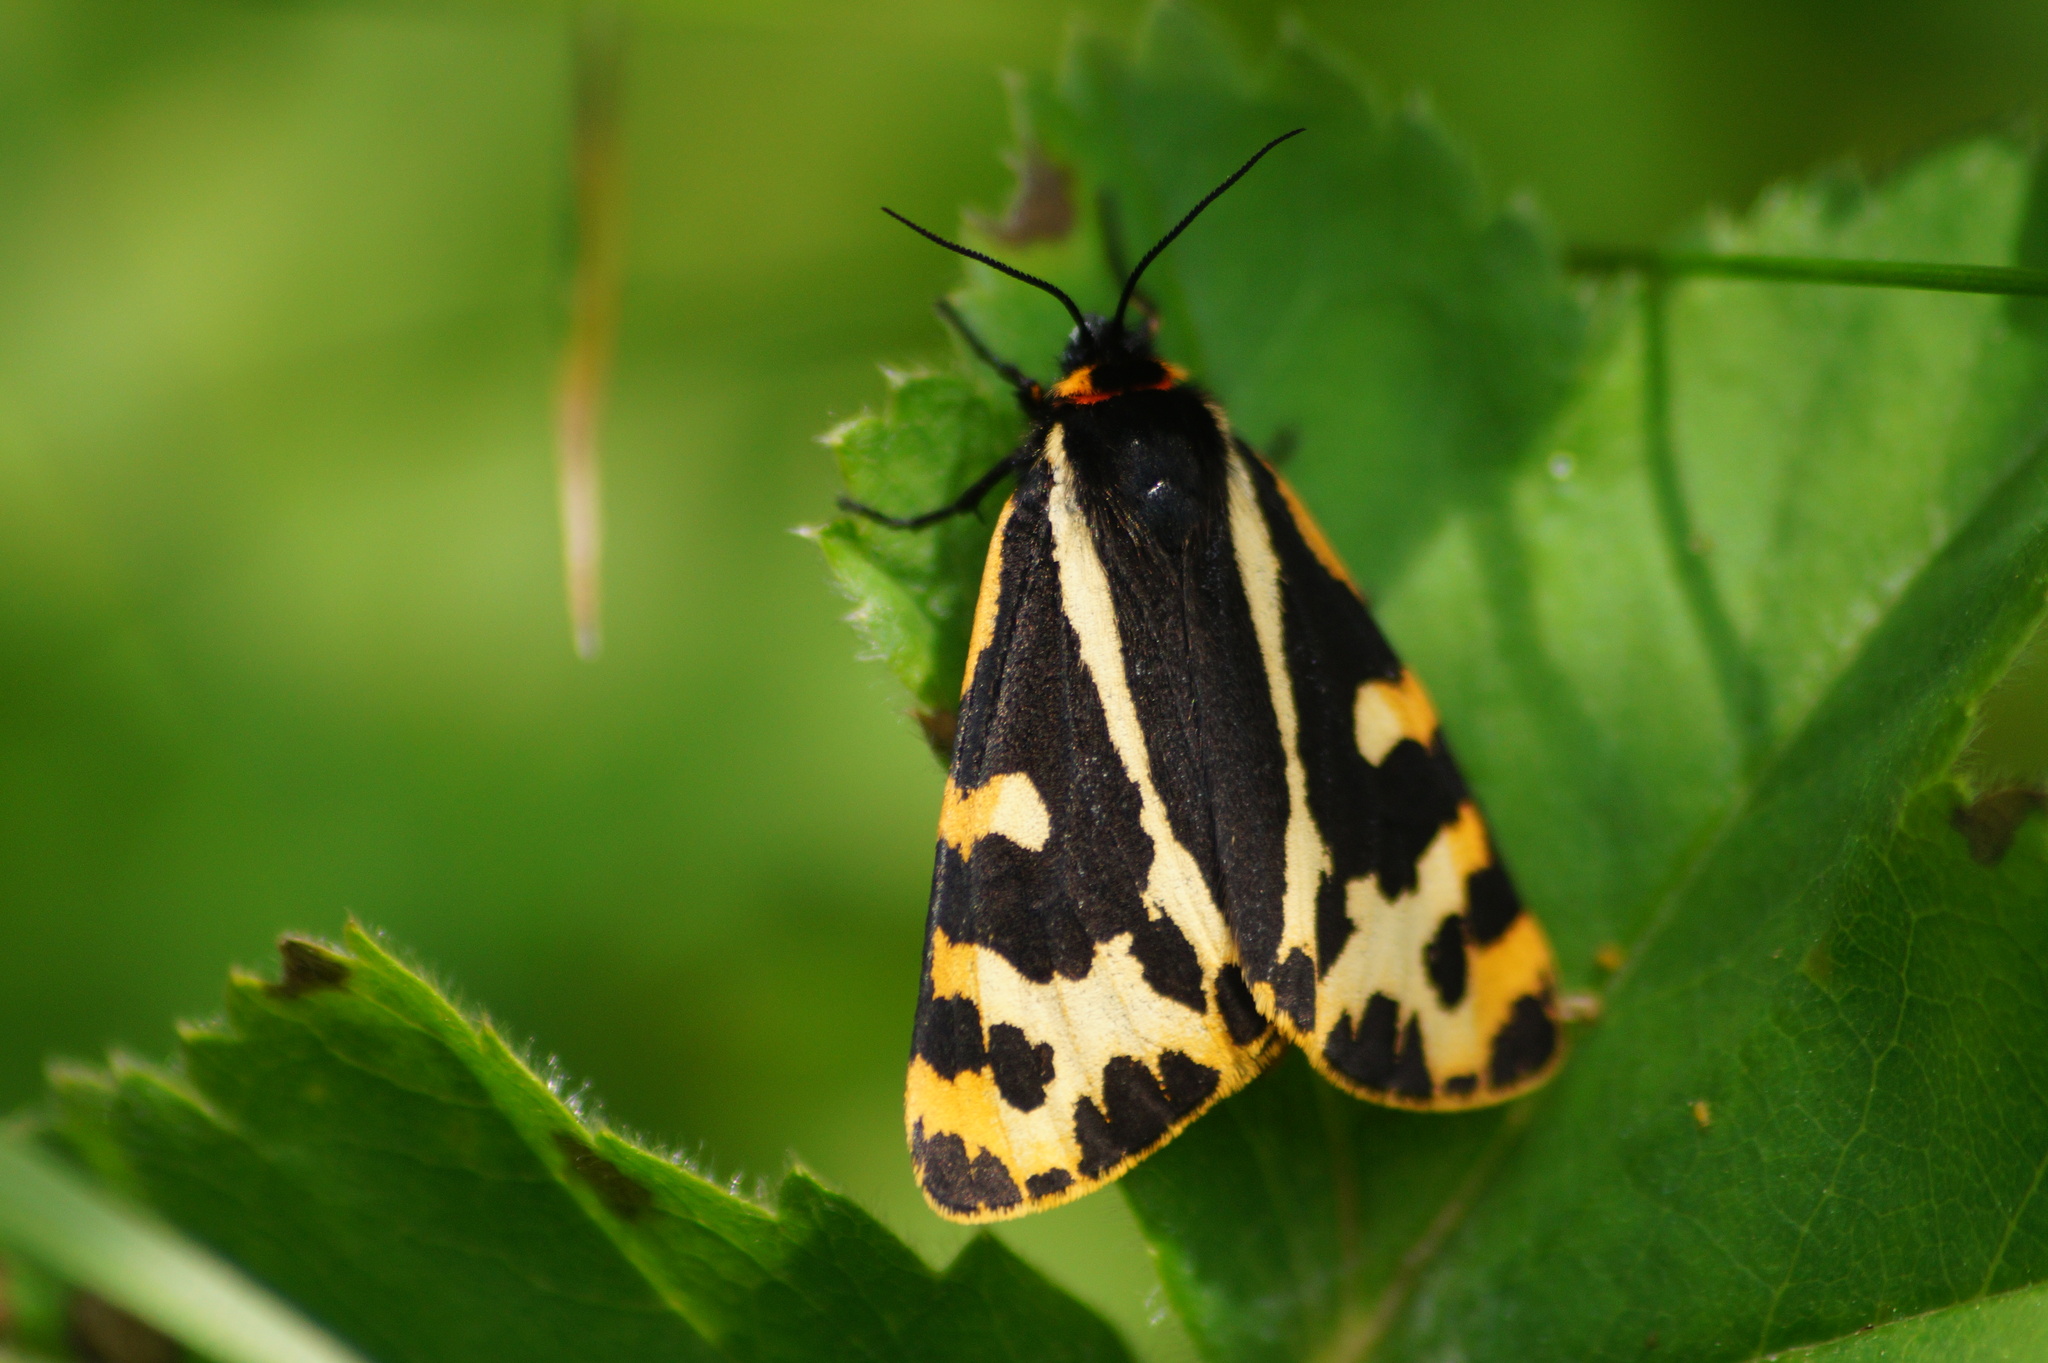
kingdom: Animalia
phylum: Arthropoda
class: Insecta
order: Lepidoptera
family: Erebidae
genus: Parasemia
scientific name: Parasemia plantaginis
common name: Wood tiger
